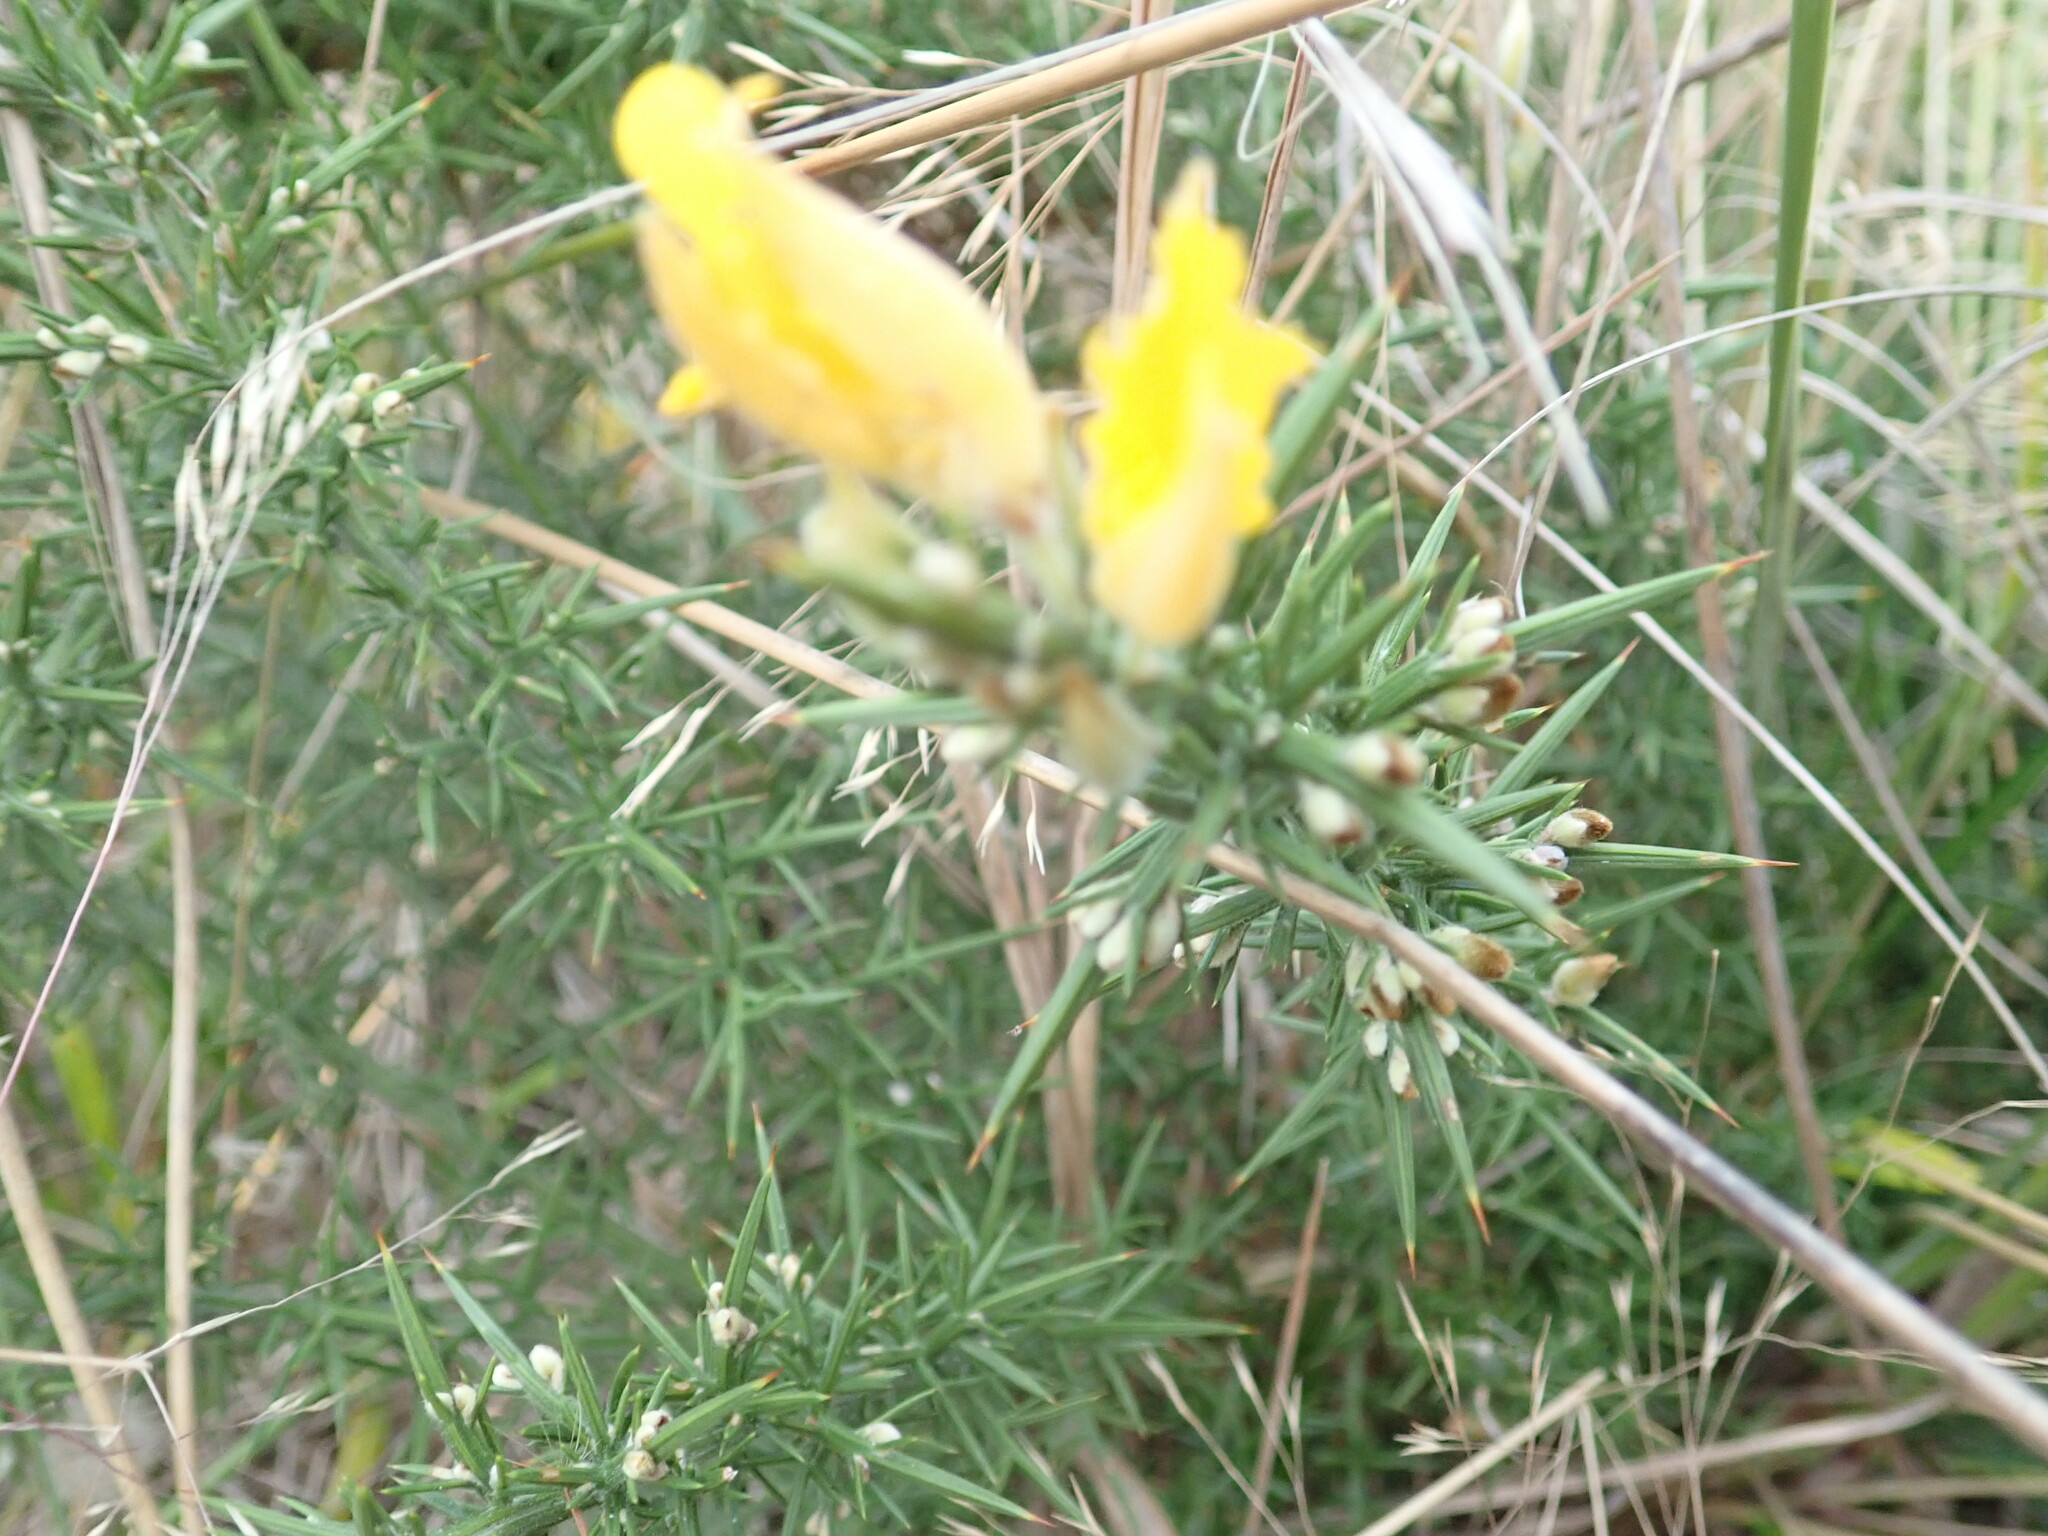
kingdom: Plantae
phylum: Tracheophyta
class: Magnoliopsida
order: Fabales
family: Fabaceae
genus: Ulex
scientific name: Ulex europaeus
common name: Common gorse
